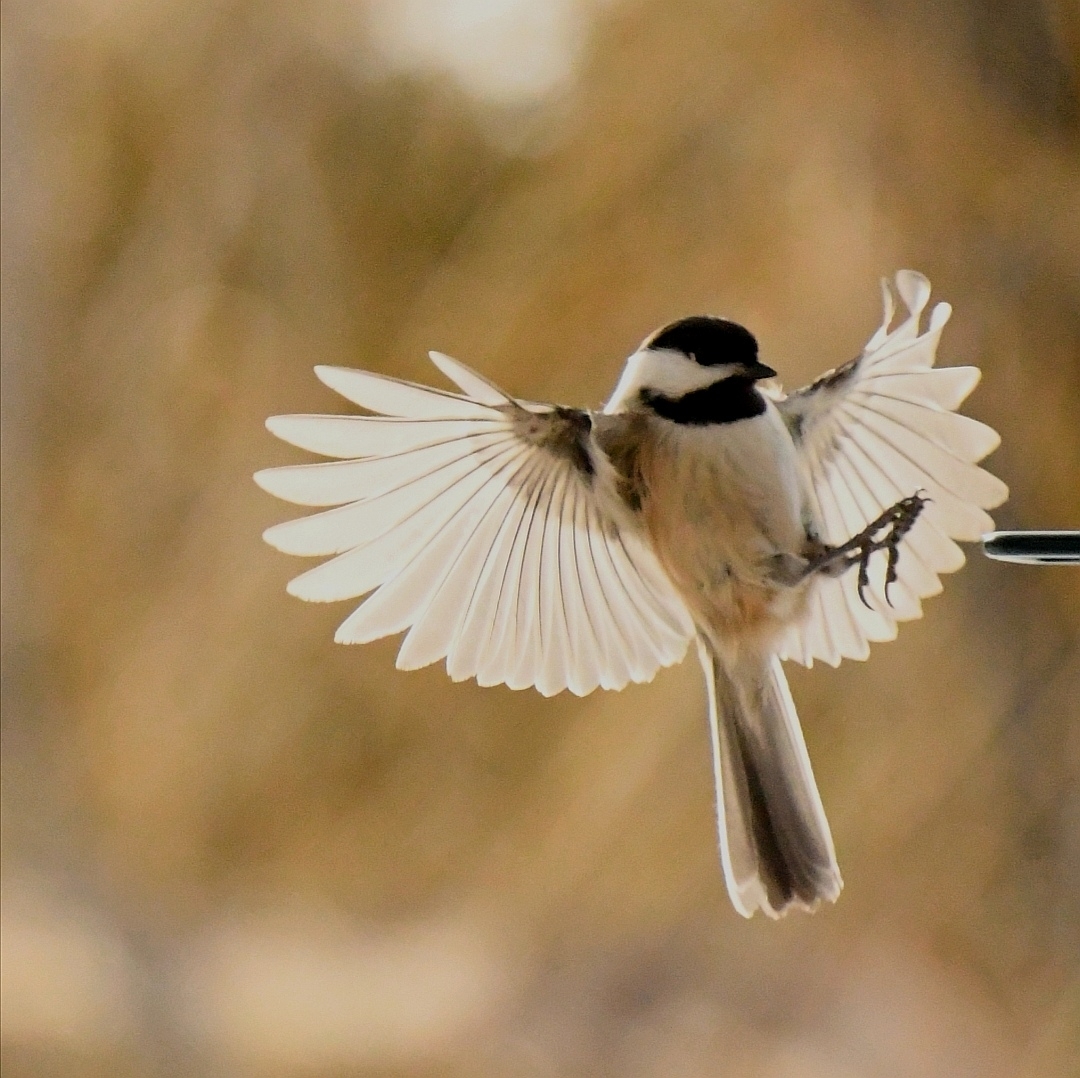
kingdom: Animalia
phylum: Chordata
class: Aves
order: Passeriformes
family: Paridae
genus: Poecile
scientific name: Poecile atricapillus
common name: Black-capped chickadee
